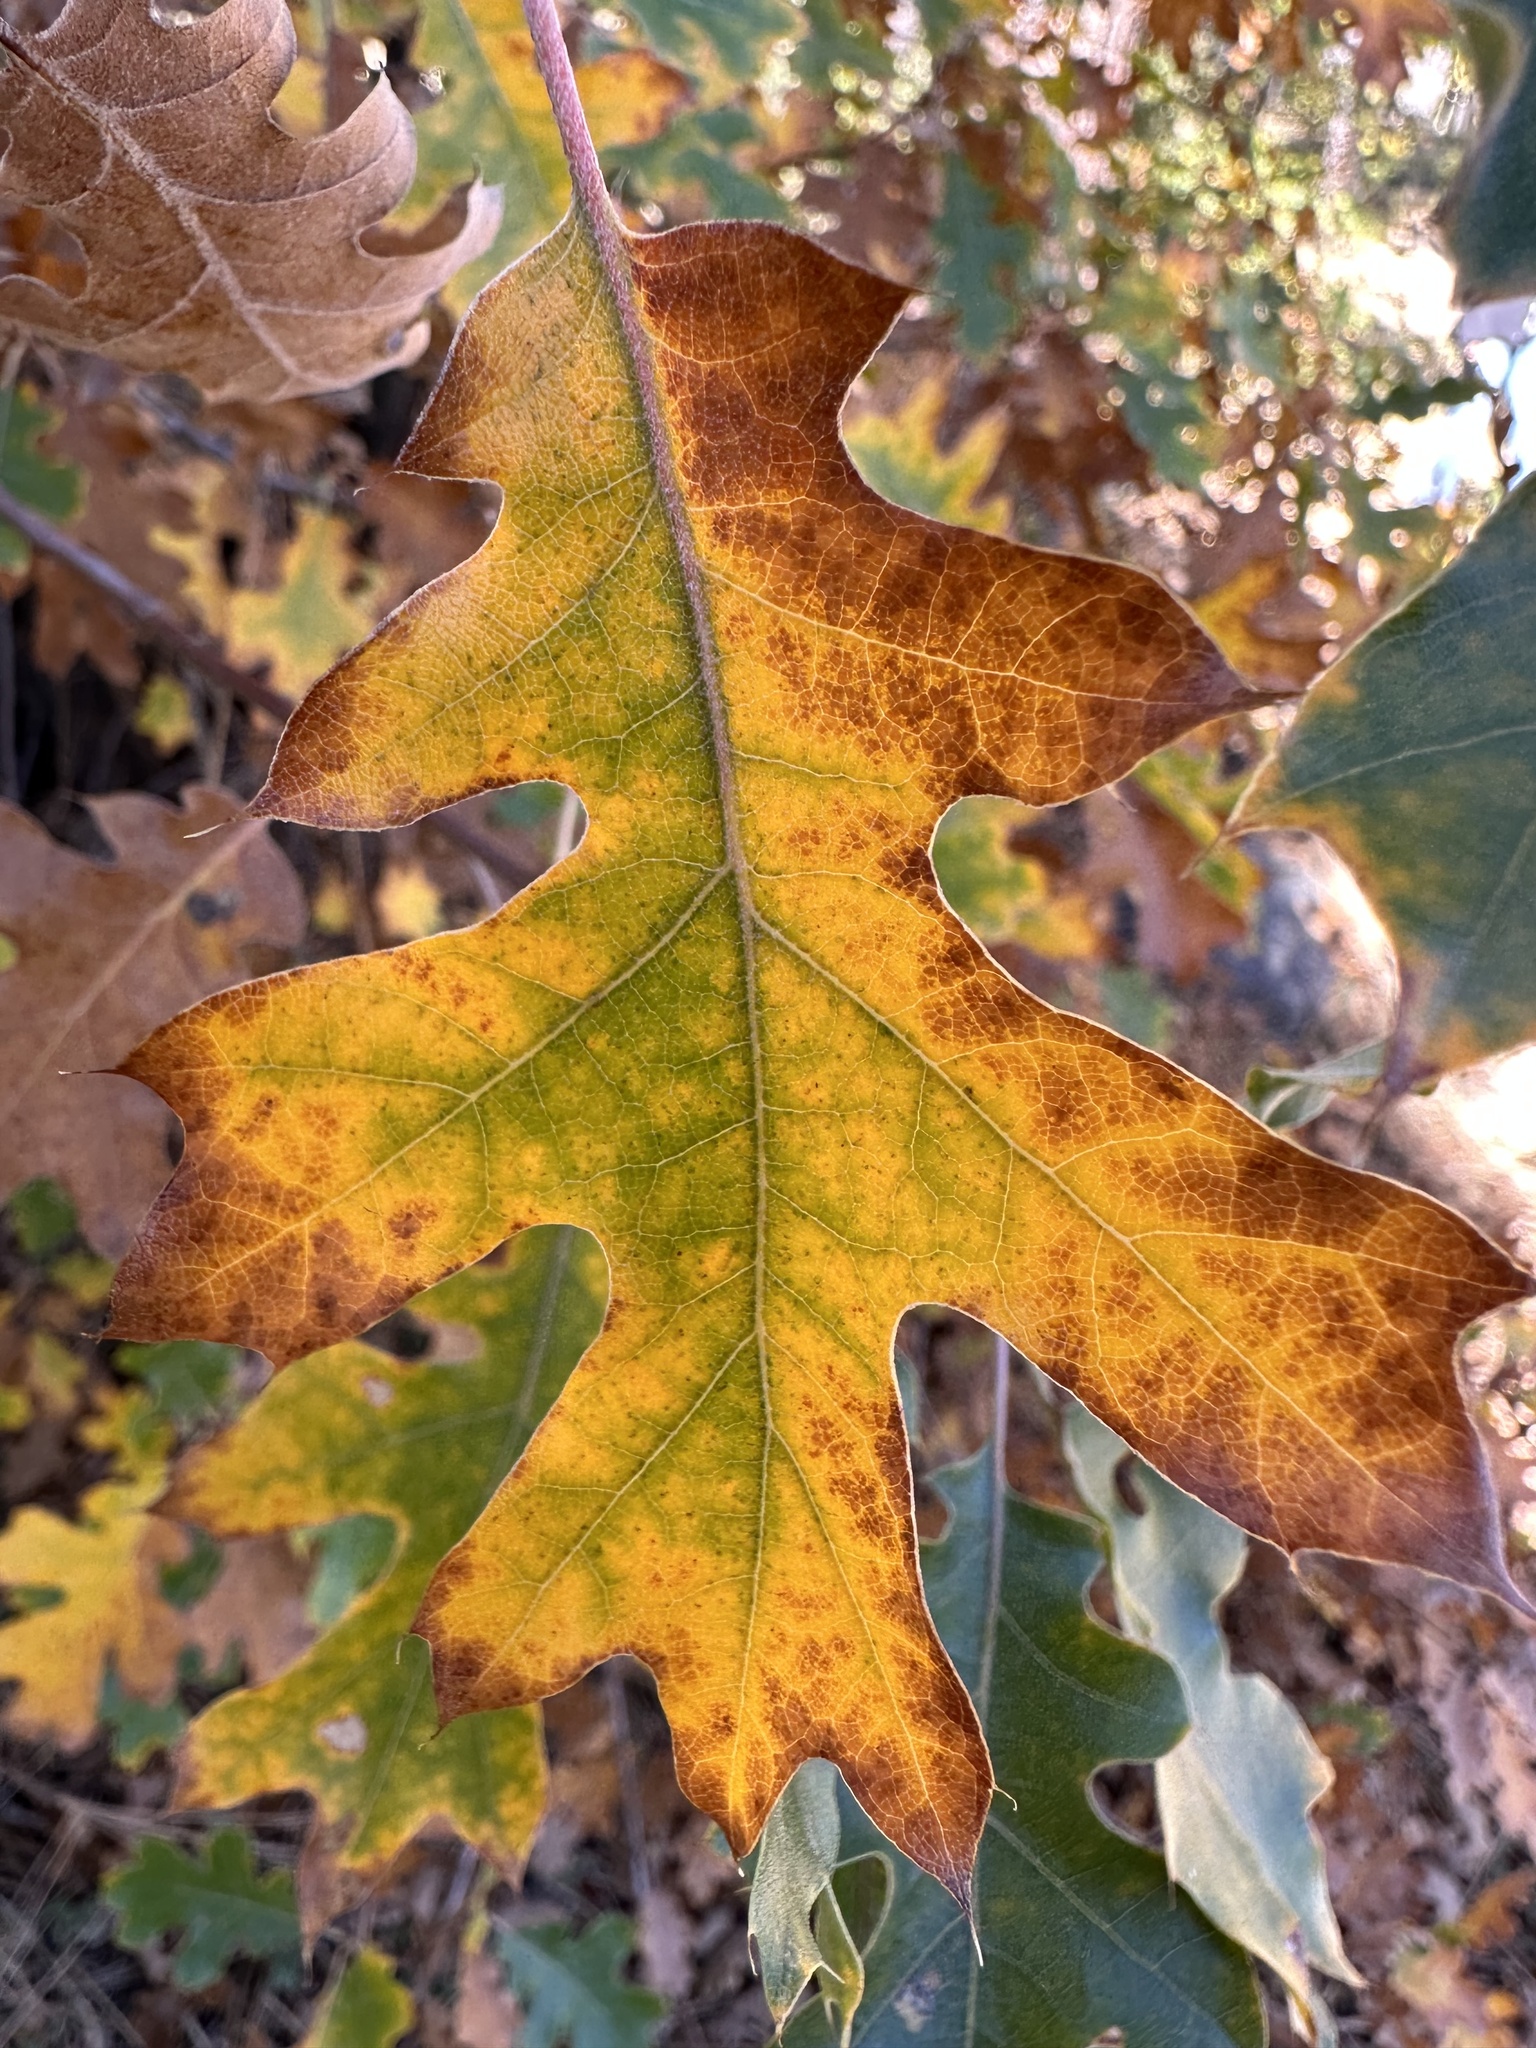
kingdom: Plantae
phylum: Tracheophyta
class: Magnoliopsida
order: Fagales
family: Fagaceae
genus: Quercus
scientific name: Quercus kelloggii
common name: California black oak
